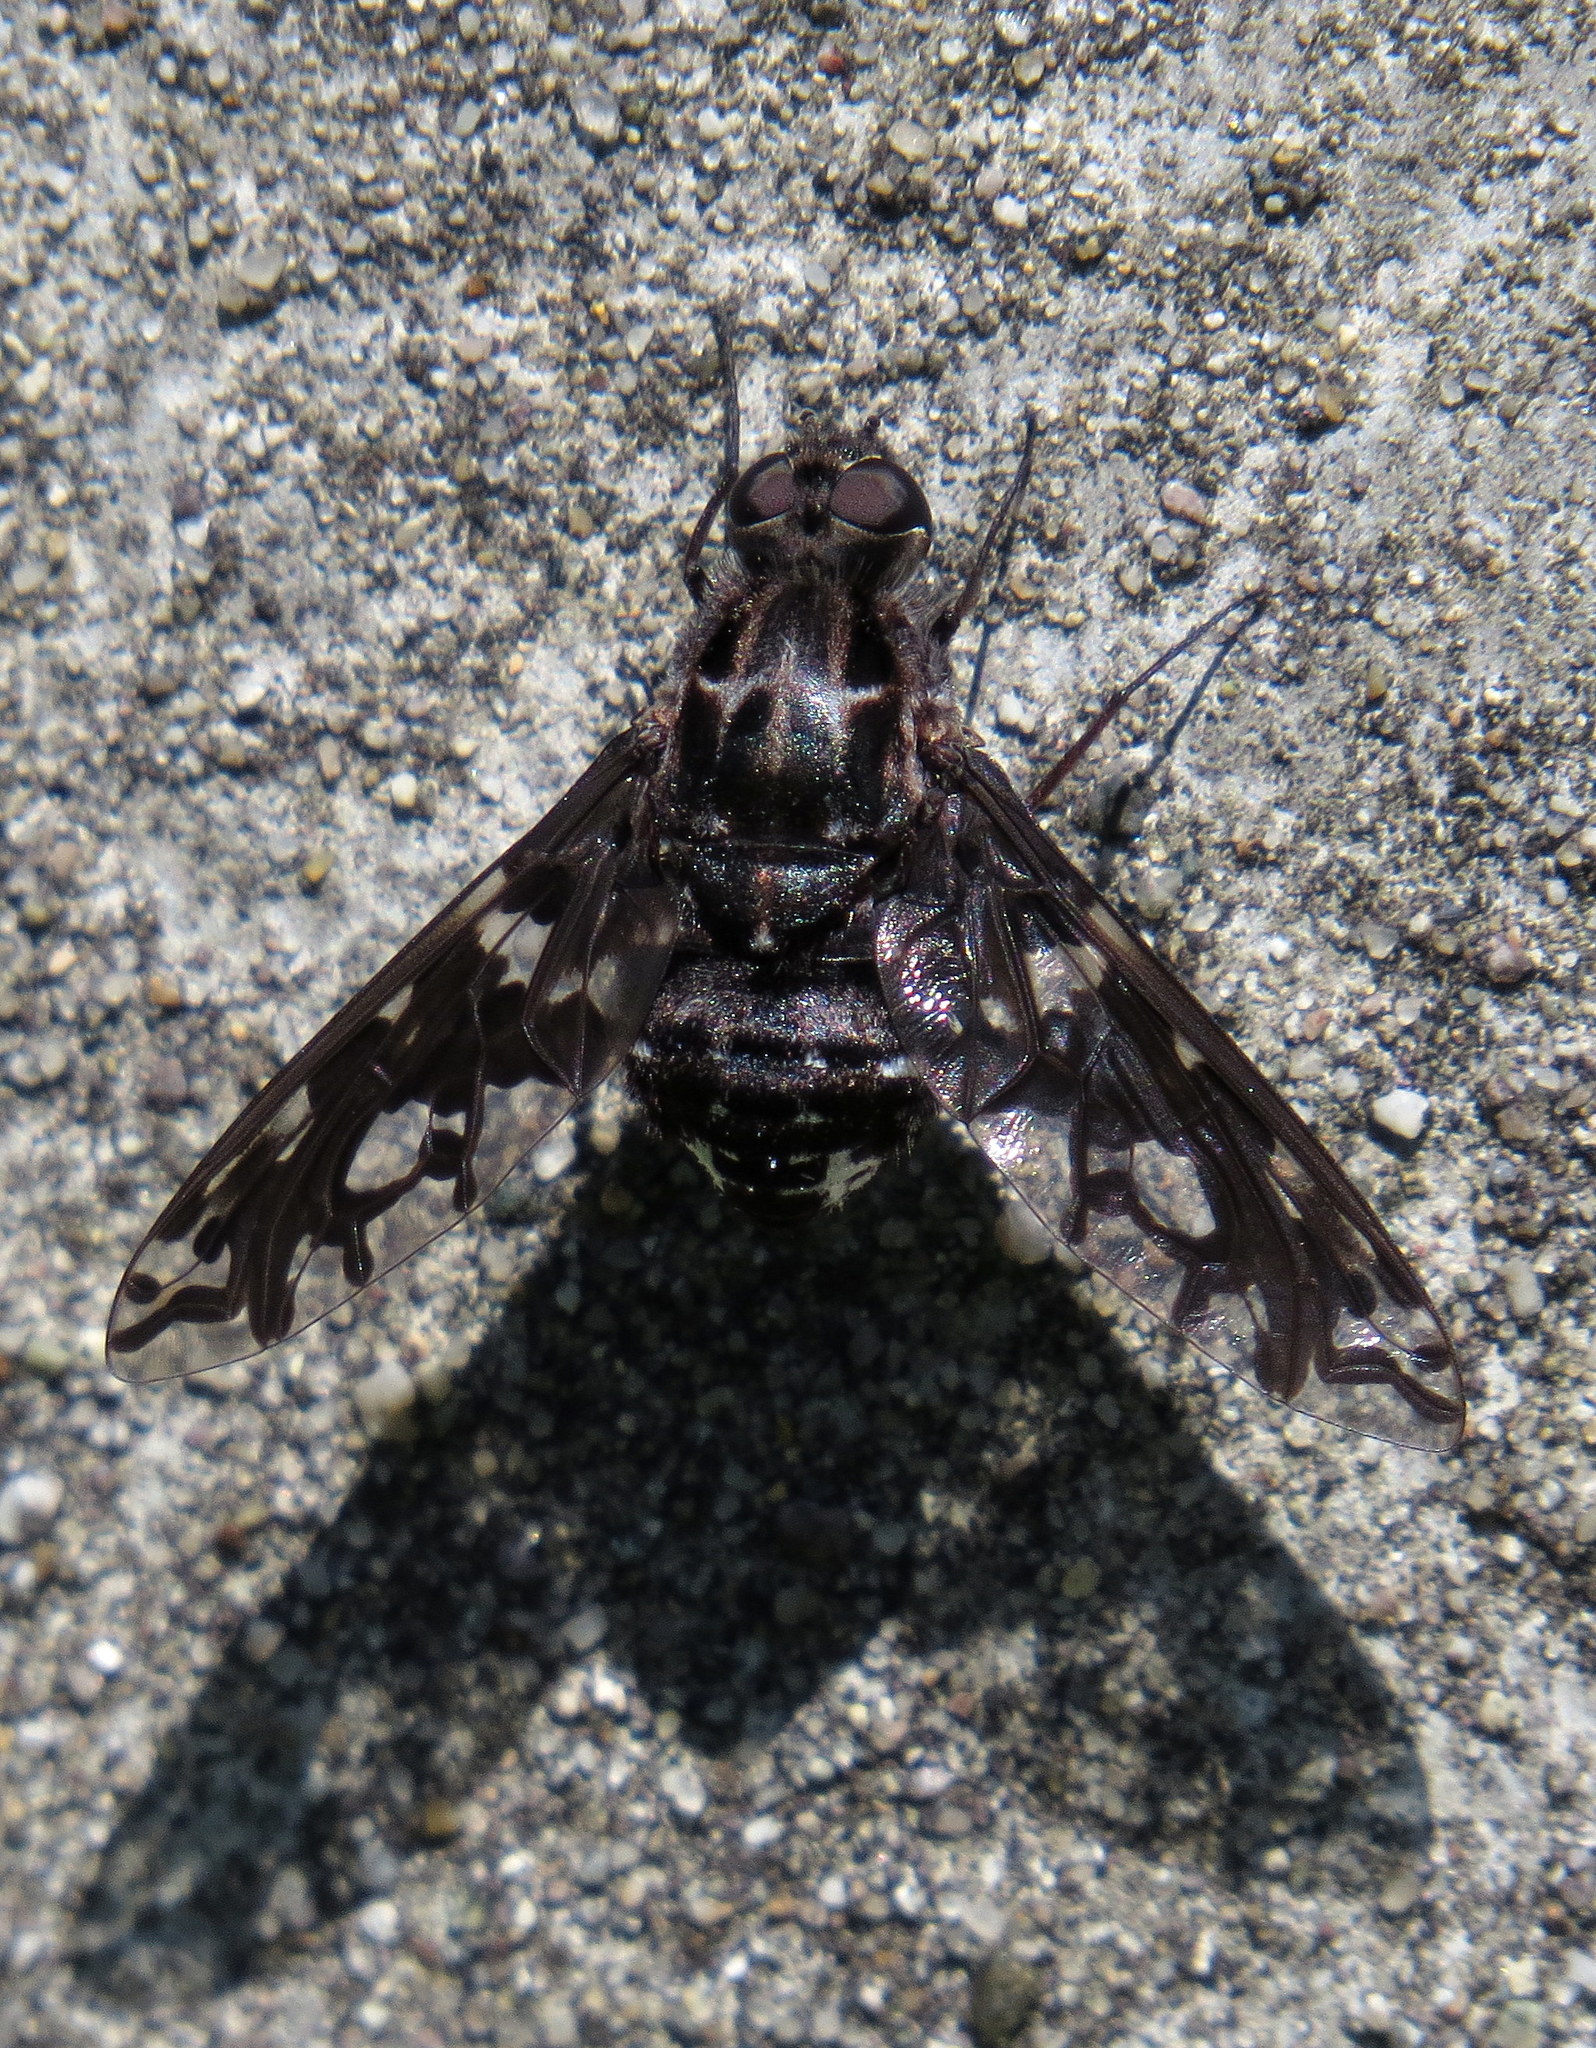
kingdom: Animalia
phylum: Arthropoda
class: Insecta
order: Diptera
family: Bombyliidae
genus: Xenox
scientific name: Xenox tigrinus
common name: Tiger bee fly
